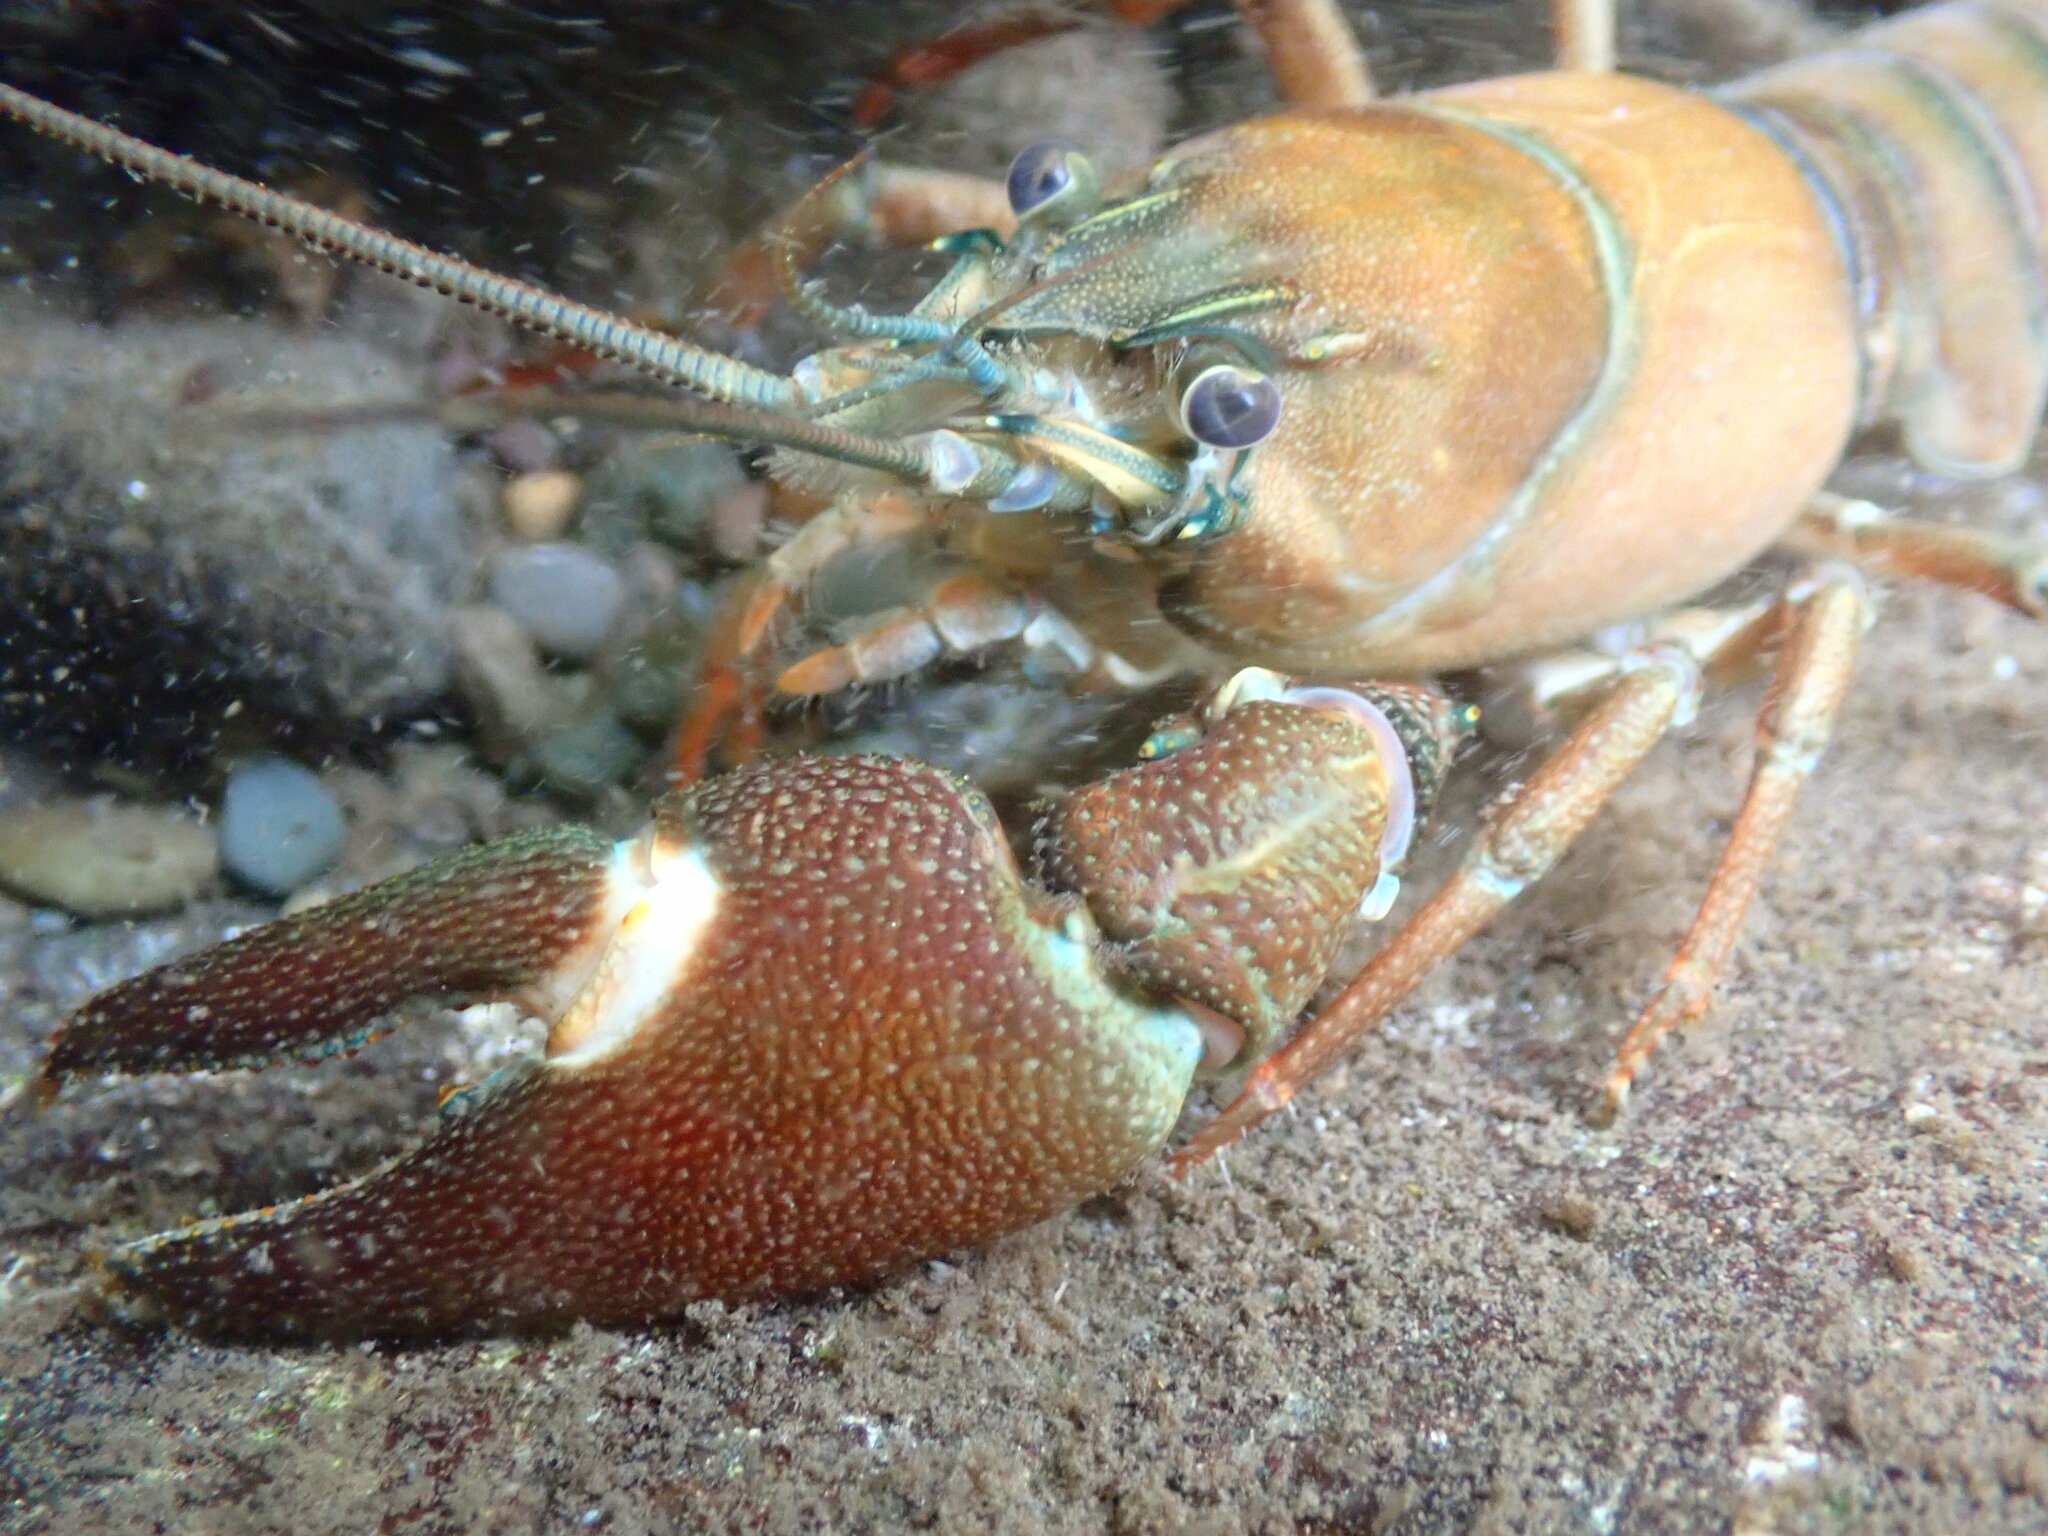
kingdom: Animalia
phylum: Arthropoda
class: Malacostraca
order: Decapoda
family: Astacidae
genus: Pacifastacus
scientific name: Pacifastacus leniusculus
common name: Signal crayfish
